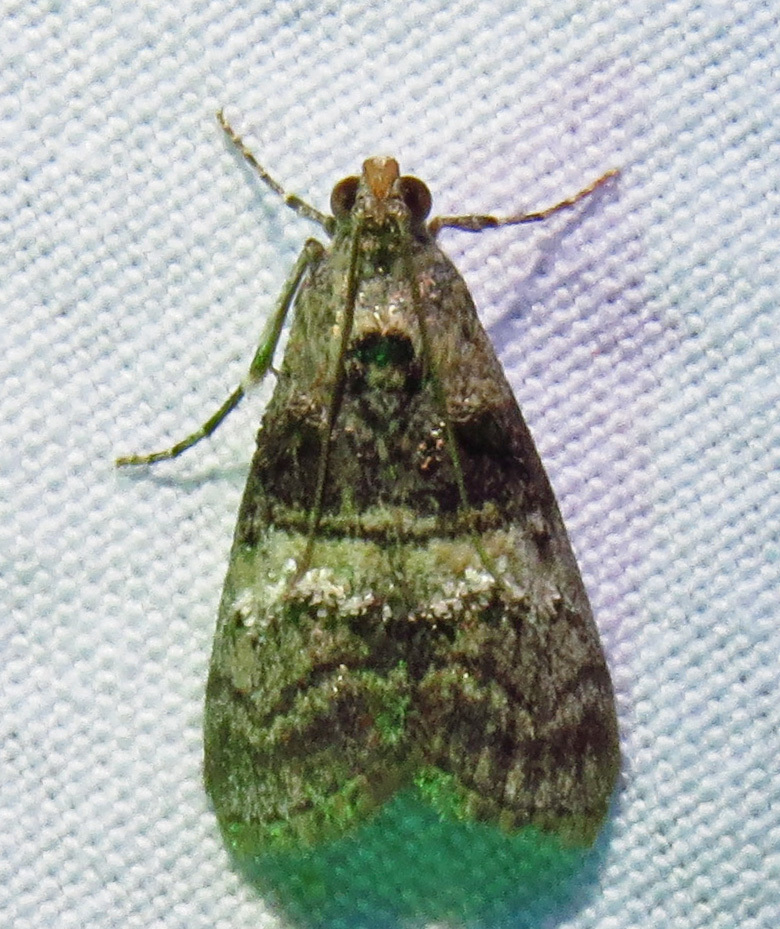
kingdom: Animalia
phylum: Arthropoda
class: Insecta
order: Lepidoptera
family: Pyralidae
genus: Pococera
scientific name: Pococera asperatella
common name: Maple webworm moth
